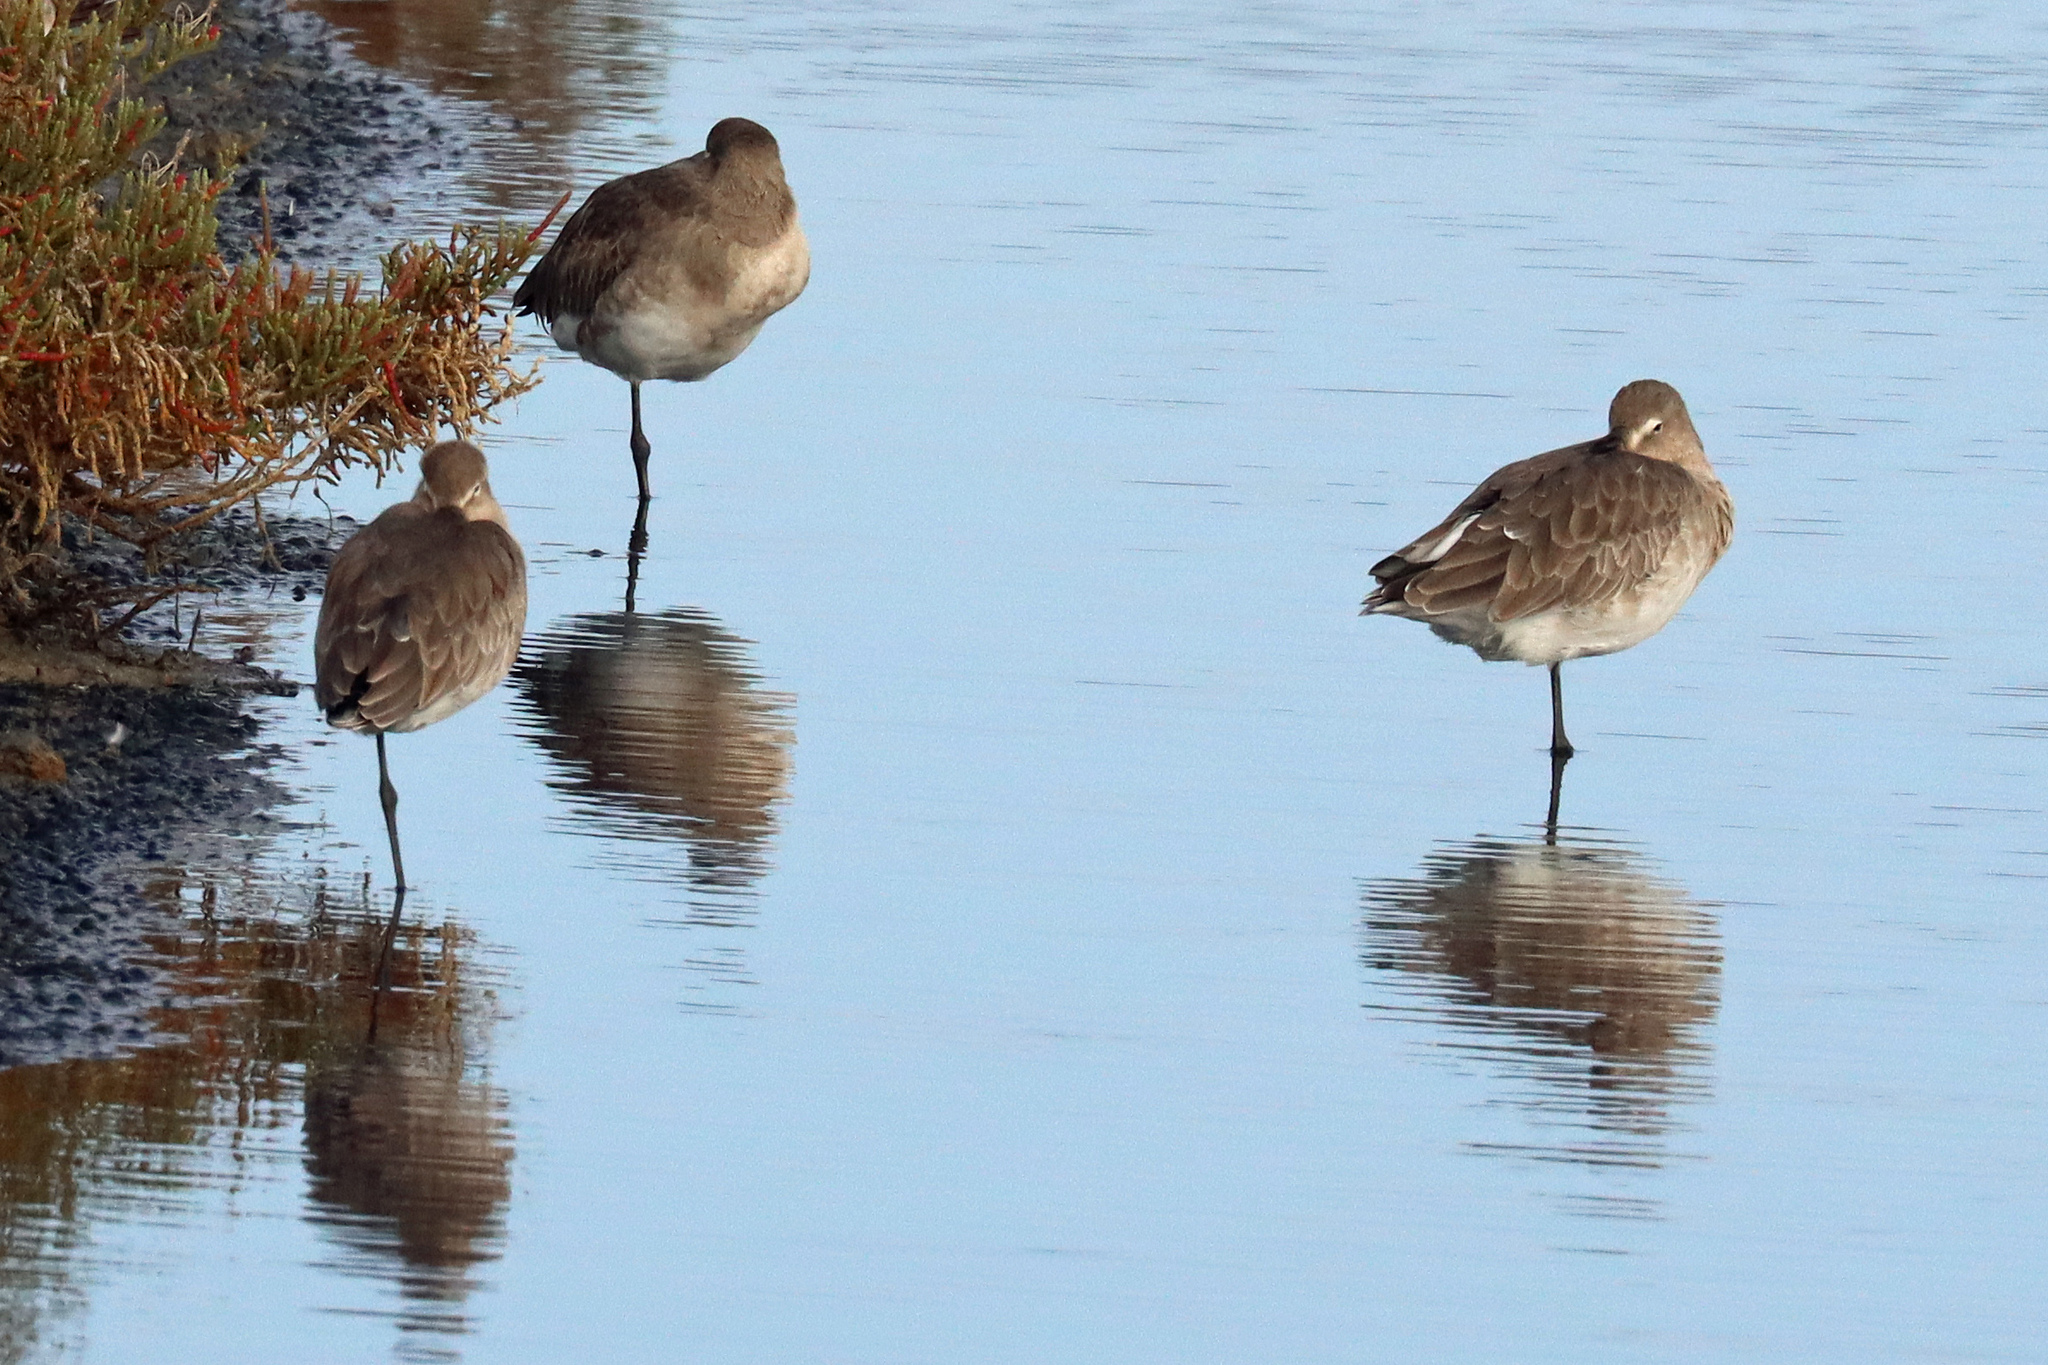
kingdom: Animalia
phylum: Chordata
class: Aves
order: Charadriiformes
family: Scolopacidae
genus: Limosa
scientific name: Limosa limosa
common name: Black-tailed godwit
